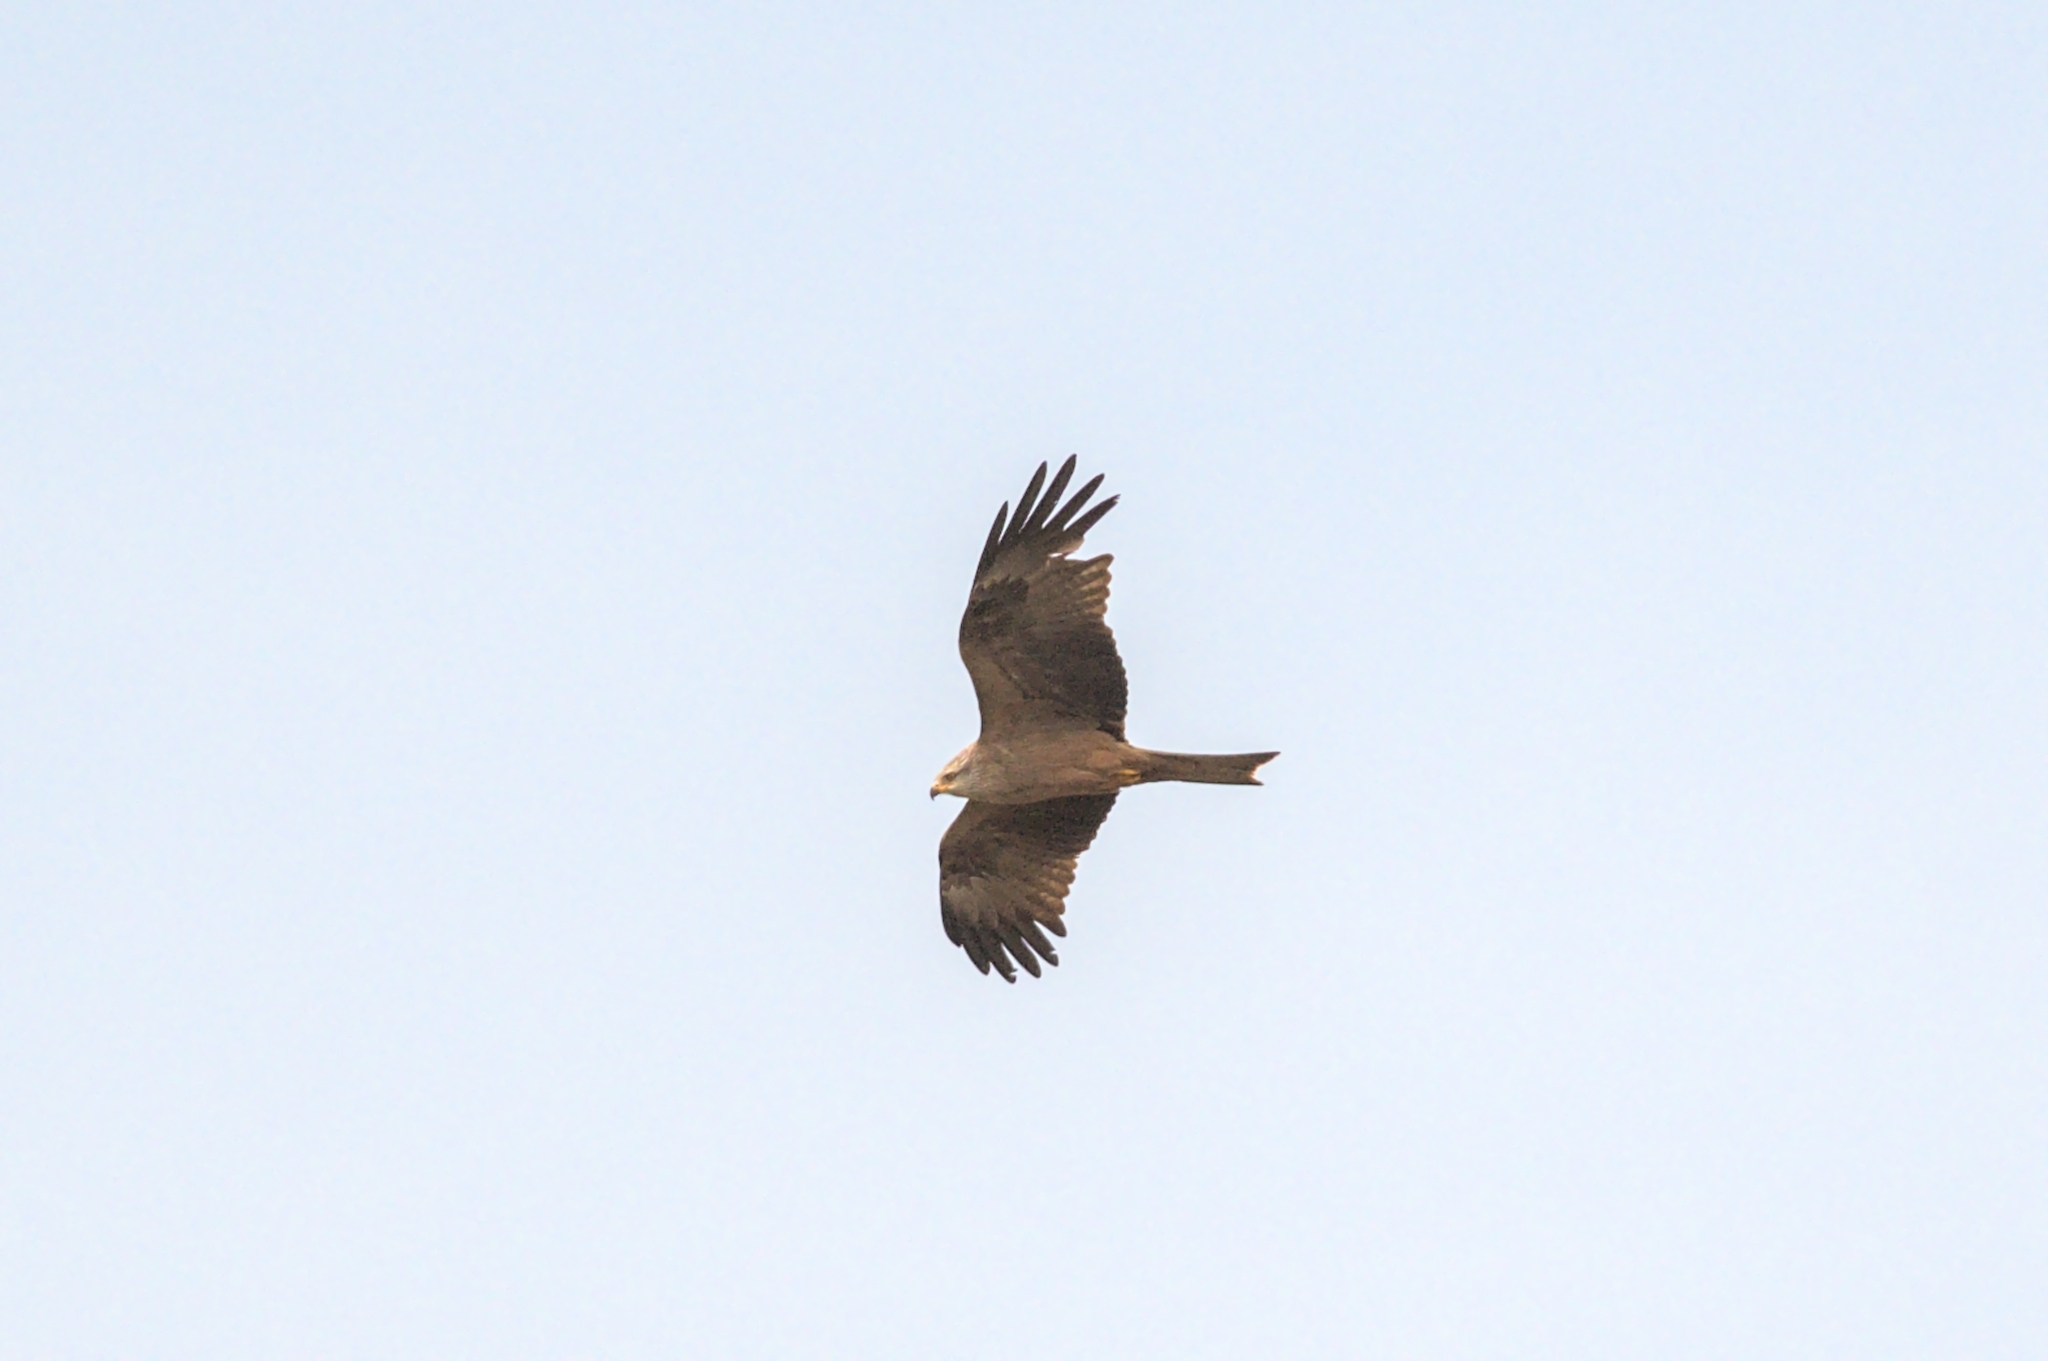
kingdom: Animalia
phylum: Chordata
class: Aves
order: Accipitriformes
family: Accipitridae
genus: Milvus
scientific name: Milvus migrans
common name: Black kite
